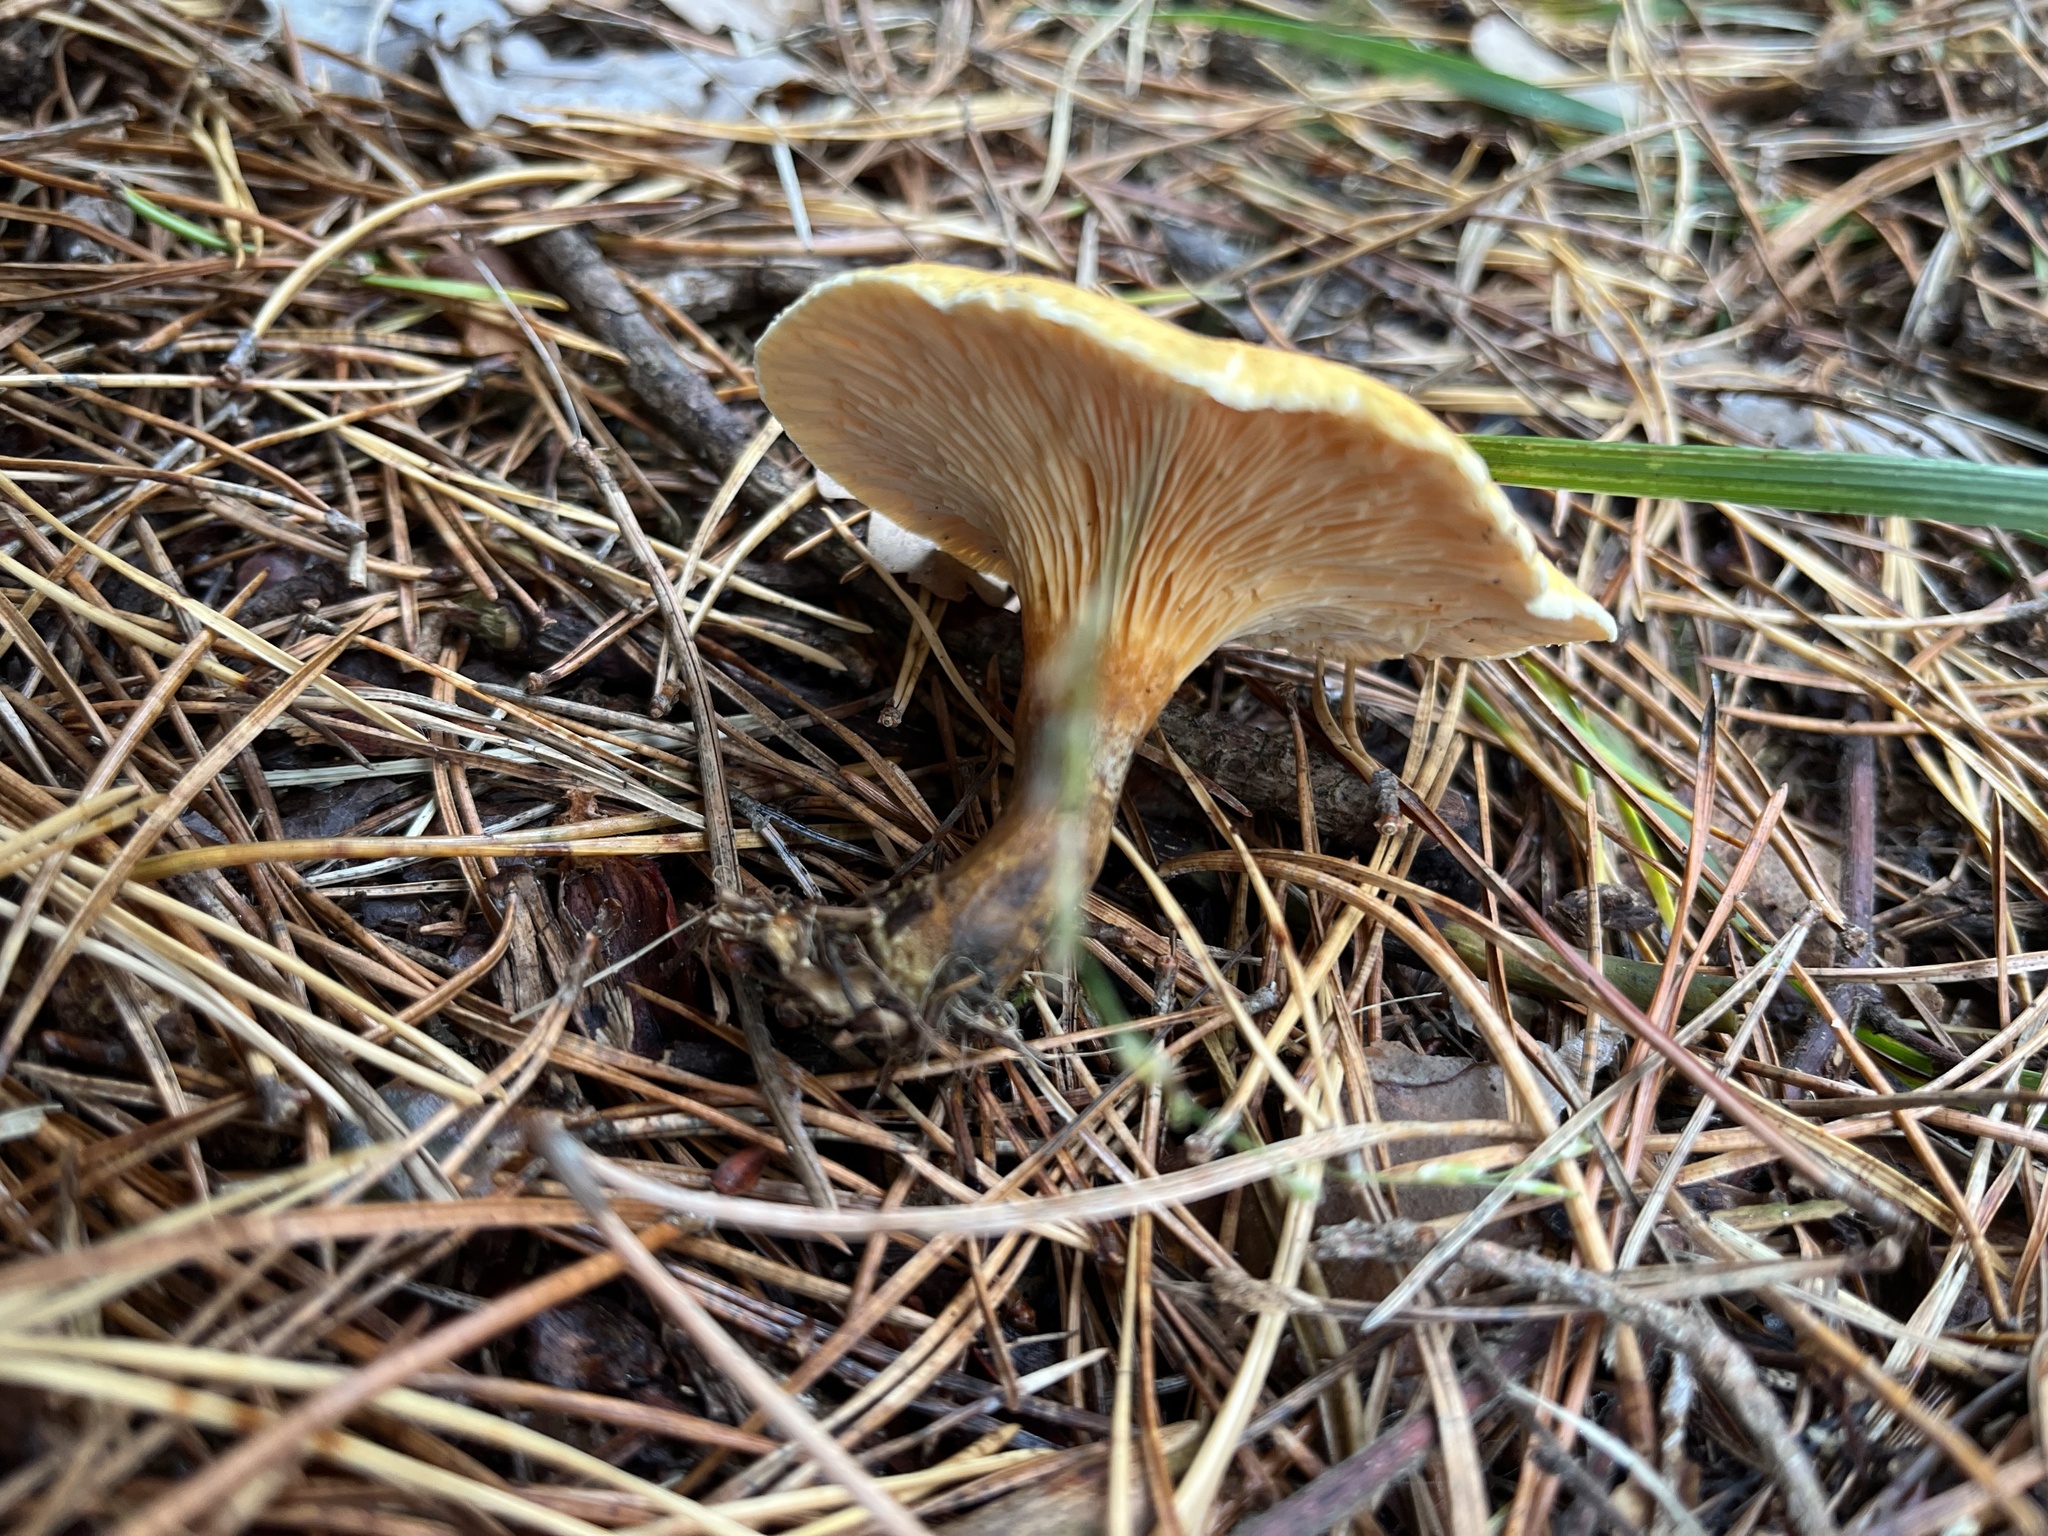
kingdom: Fungi
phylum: Basidiomycota
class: Agaricomycetes
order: Boletales
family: Hygrophoropsidaceae
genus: Hygrophoropsis
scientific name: Hygrophoropsis aurantiaca
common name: False chanterelle
